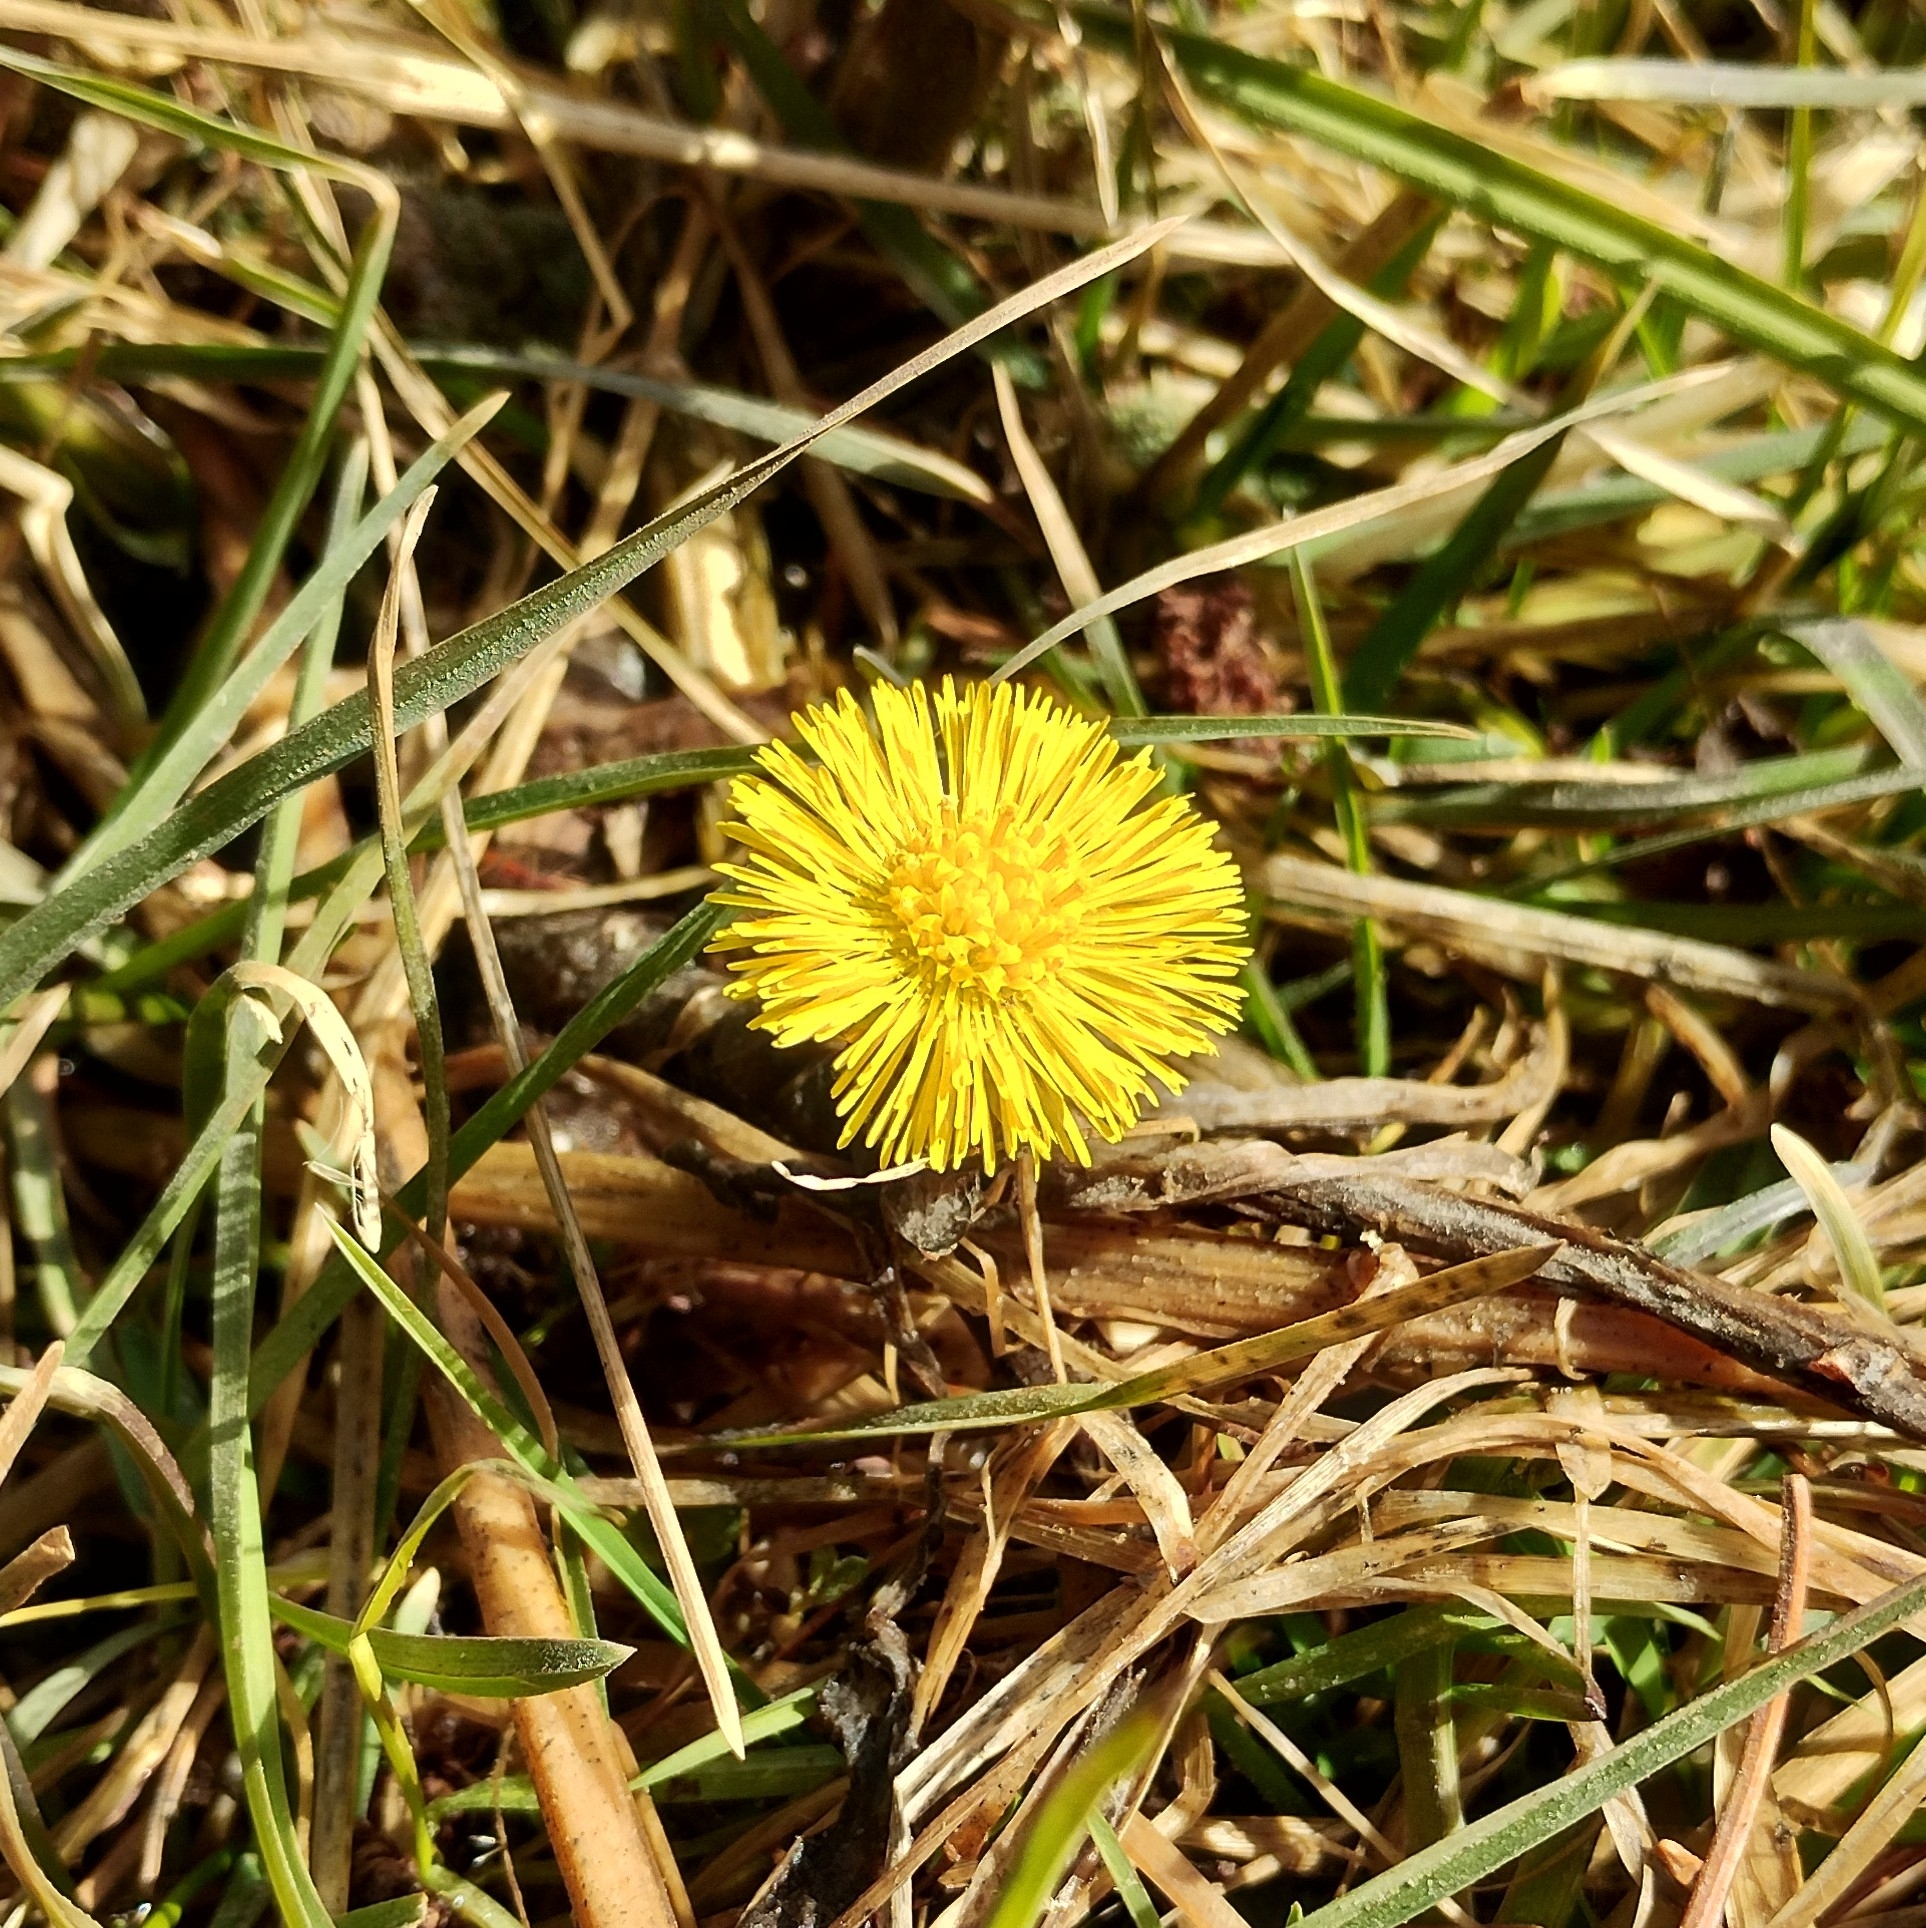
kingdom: Plantae
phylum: Tracheophyta
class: Magnoliopsida
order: Asterales
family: Asteraceae
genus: Tussilago
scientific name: Tussilago farfara
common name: Coltsfoot
